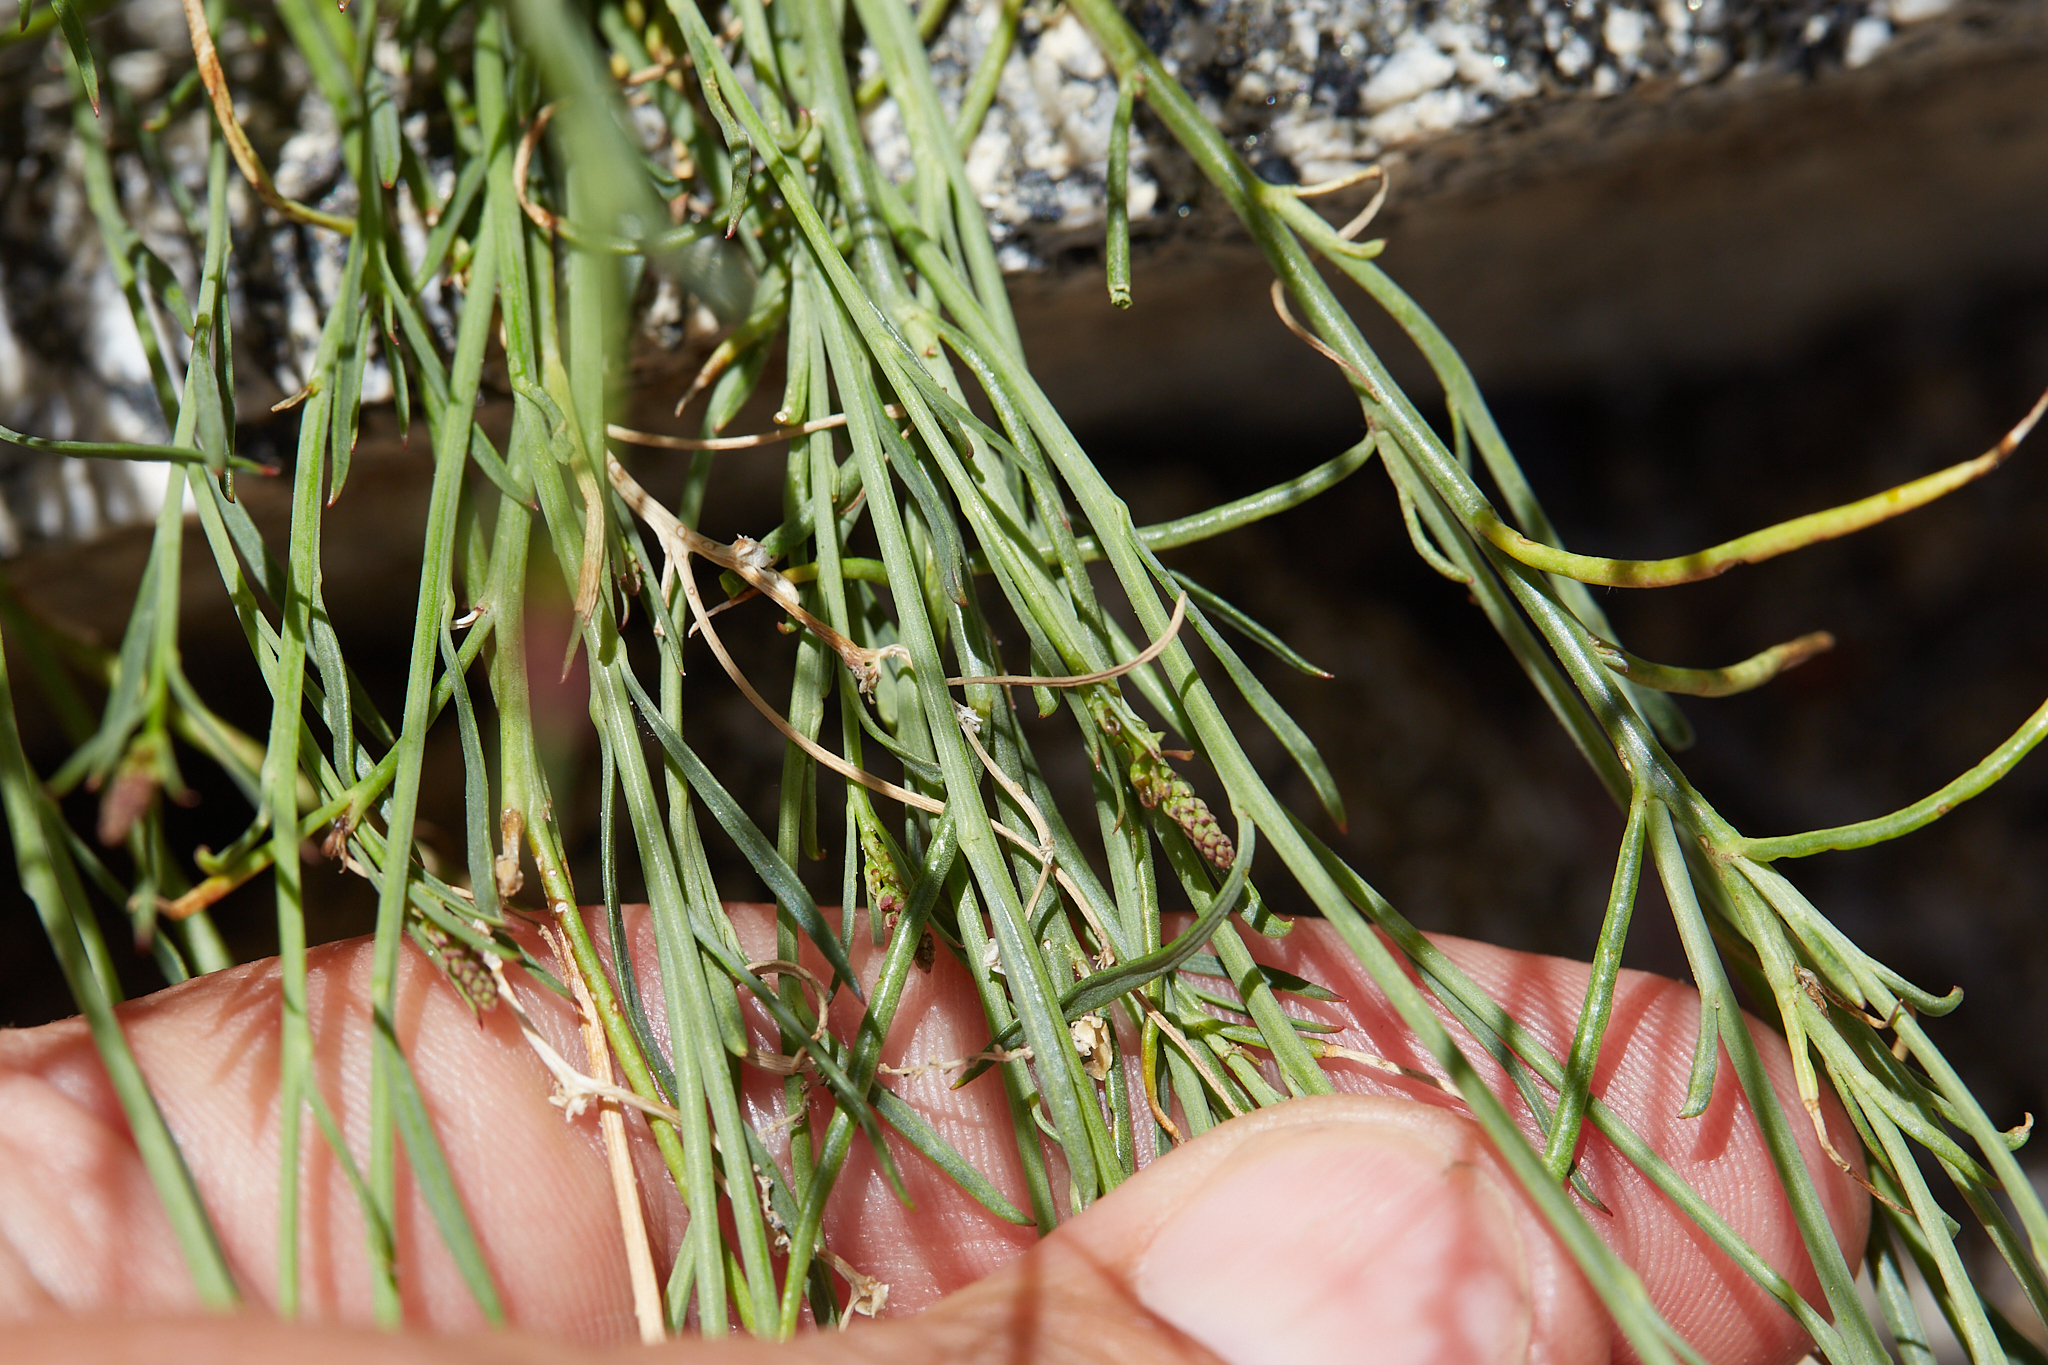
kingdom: Plantae
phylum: Tracheophyta
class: Magnoliopsida
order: Malpighiales
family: Euphorbiaceae
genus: Stillingia
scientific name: Stillingia linearifolia
